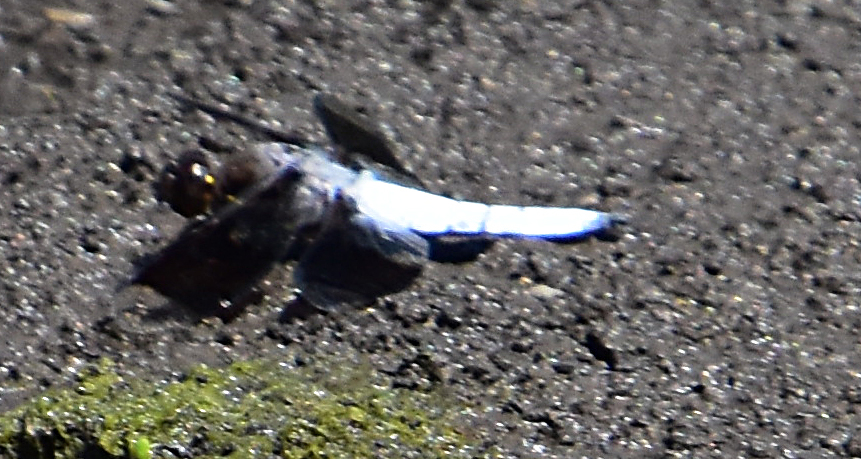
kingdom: Animalia
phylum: Arthropoda
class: Insecta
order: Odonata
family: Libellulidae
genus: Plathemis
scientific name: Plathemis lydia
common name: Common whitetail
